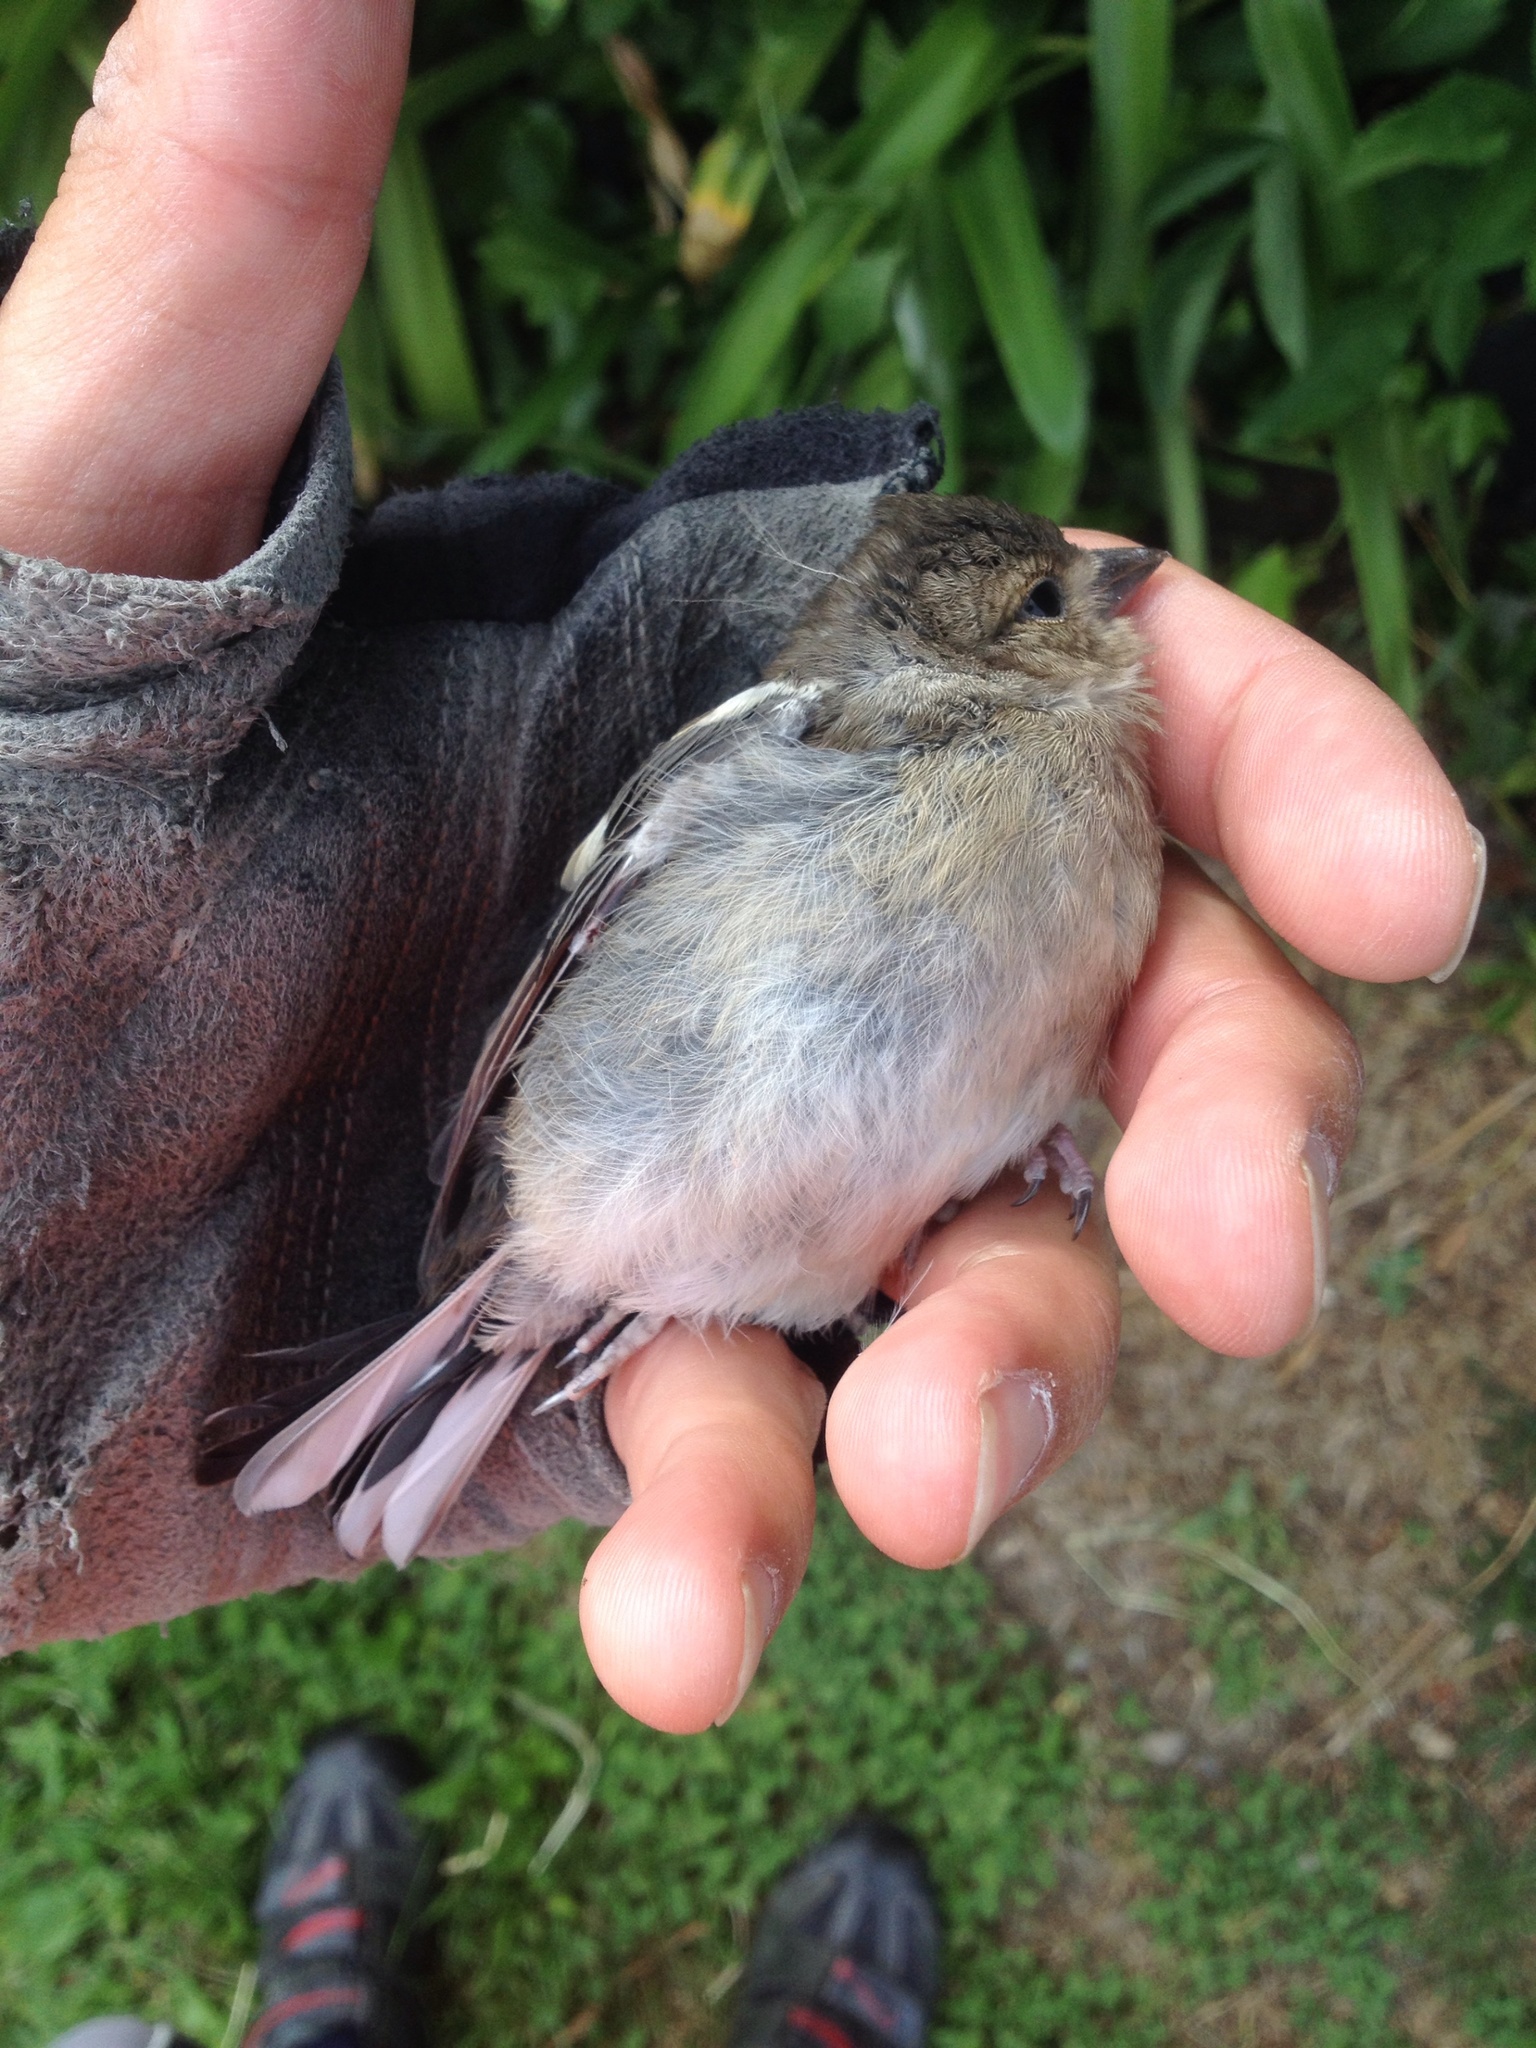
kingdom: Animalia
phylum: Chordata
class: Aves
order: Passeriformes
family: Fringillidae
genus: Fringilla
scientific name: Fringilla coelebs
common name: Common chaffinch
